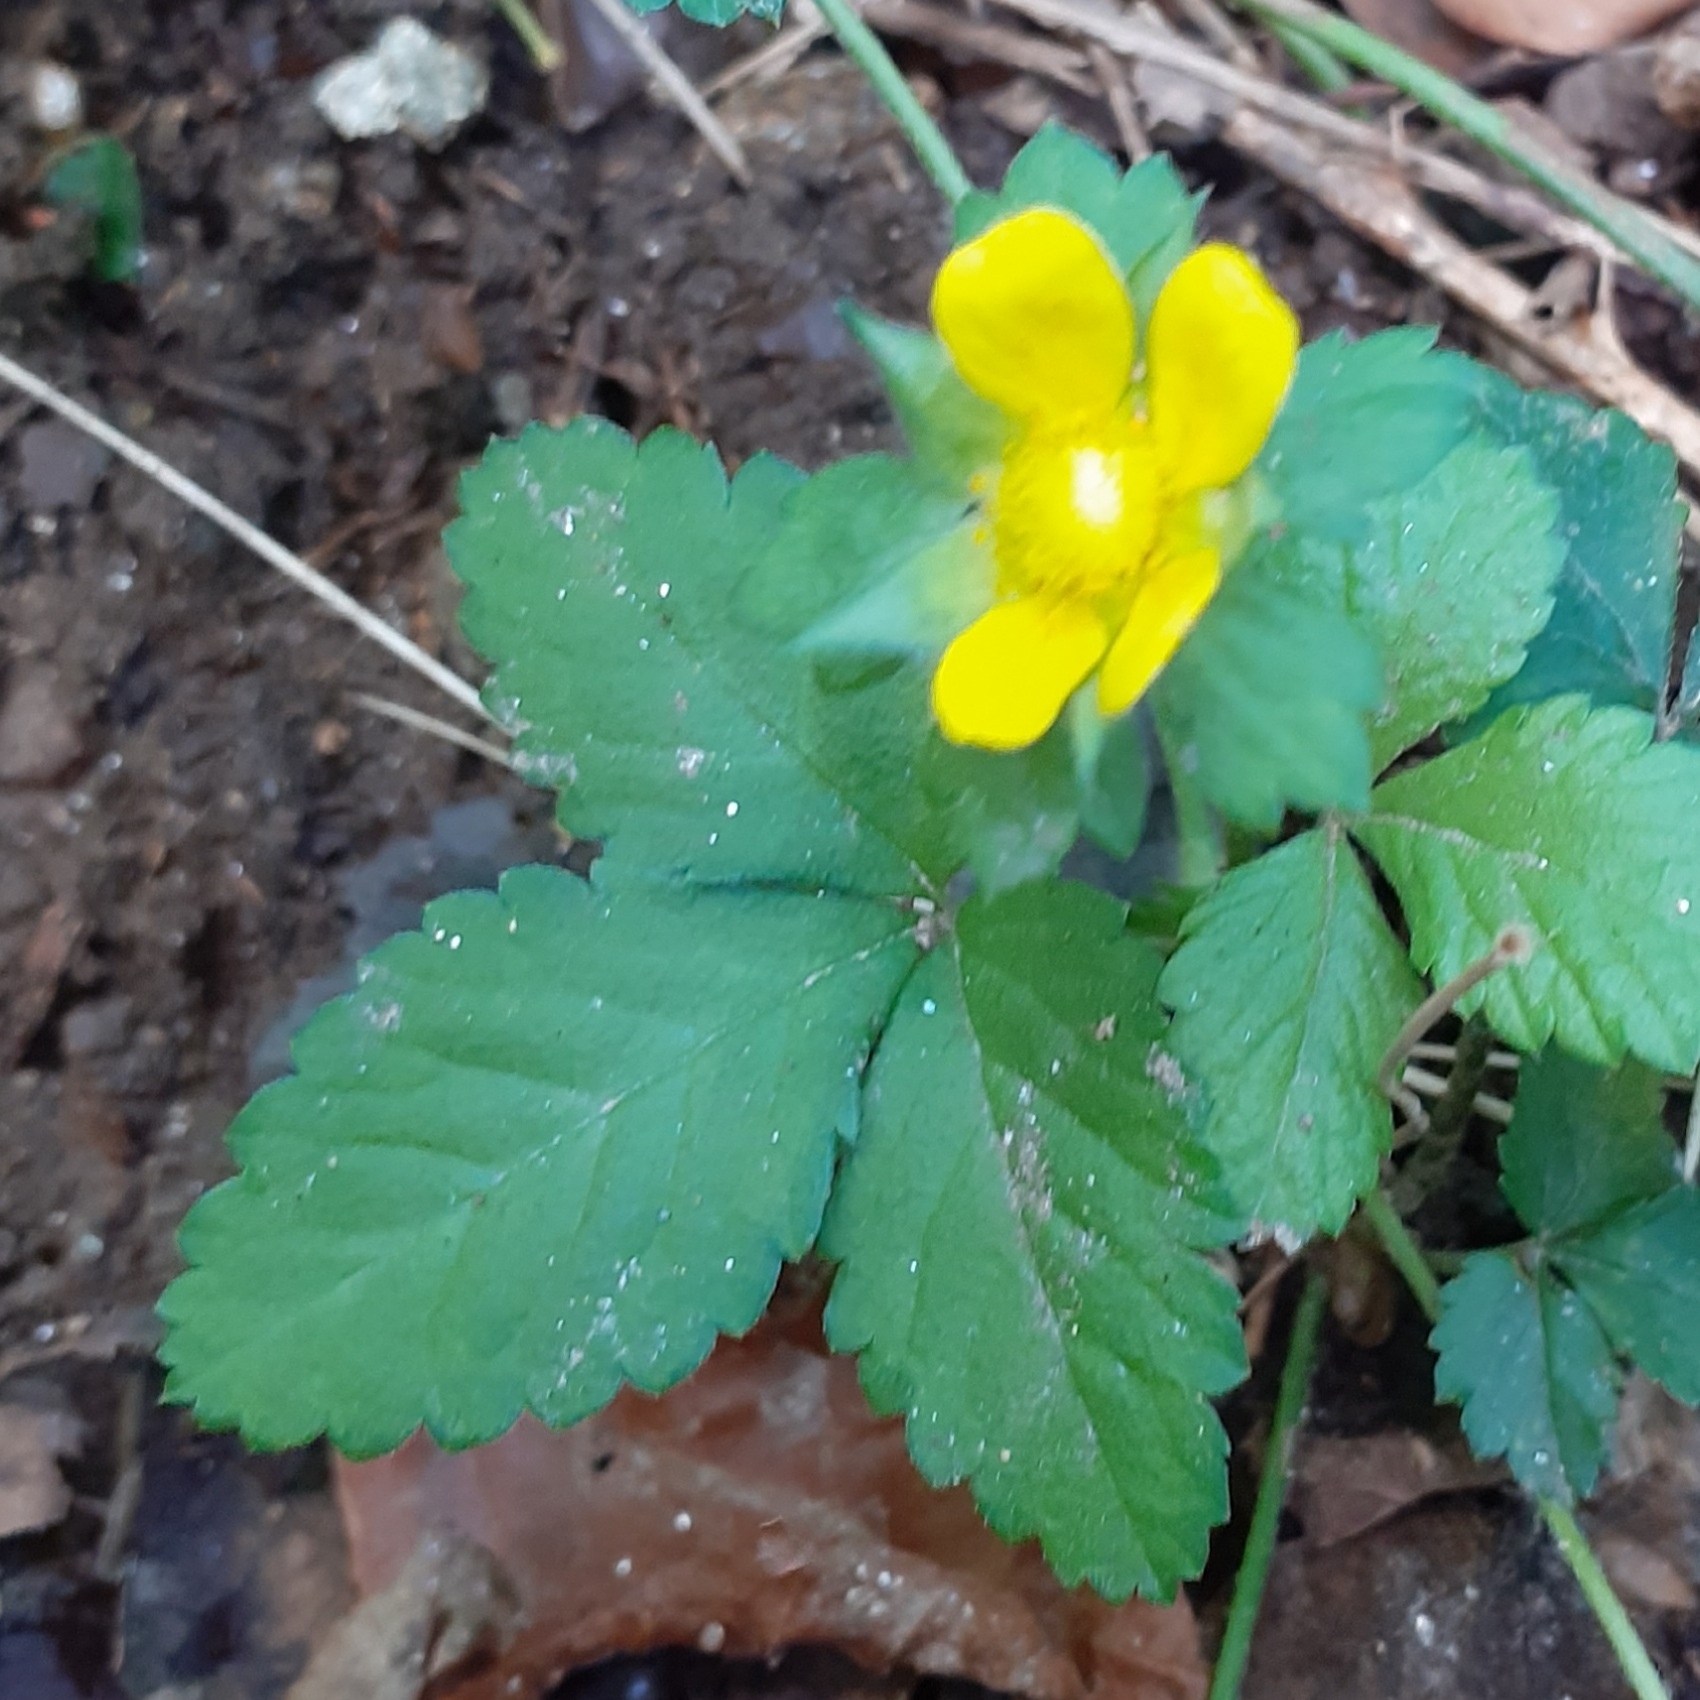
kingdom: Plantae
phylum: Tracheophyta
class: Magnoliopsida
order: Rosales
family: Rosaceae
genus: Potentilla
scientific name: Potentilla indica
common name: Yellow-flowered strawberry
